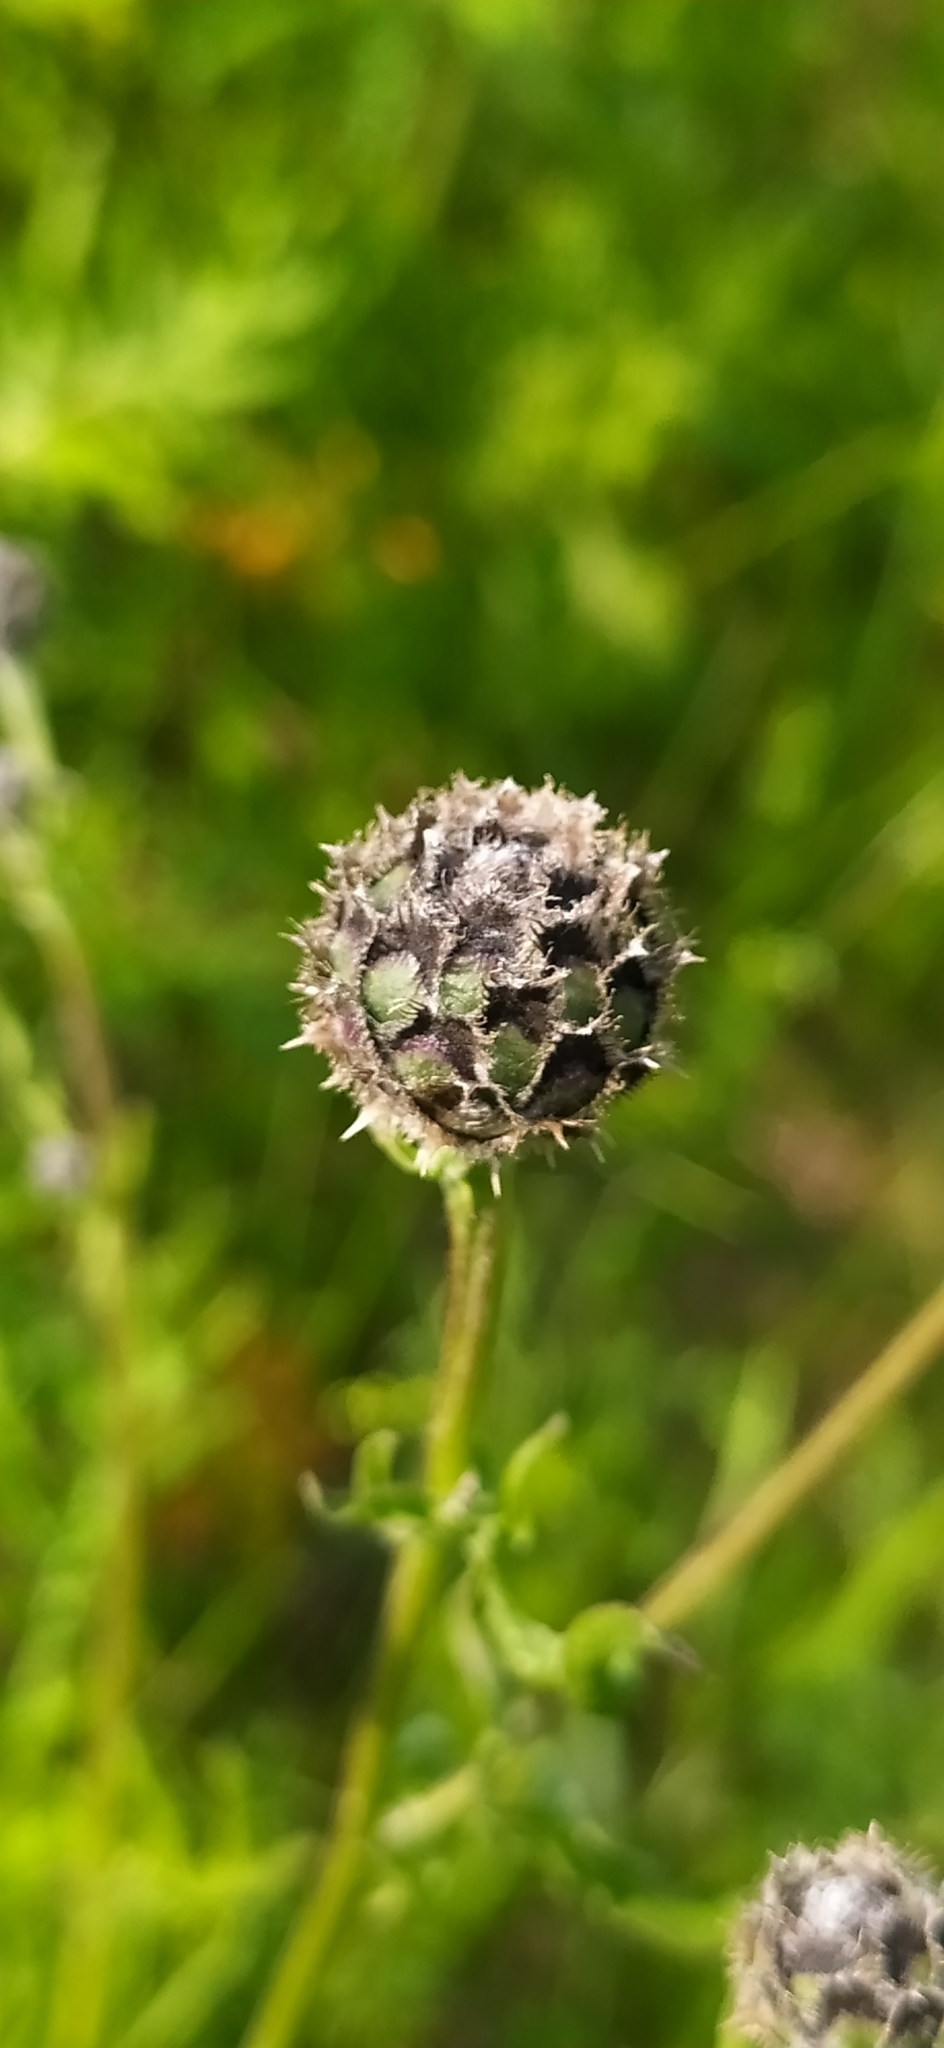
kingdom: Plantae
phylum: Tracheophyta
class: Magnoliopsida
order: Asterales
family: Asteraceae
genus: Centaurea
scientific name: Centaurea scabiosa
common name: Greater knapweed
